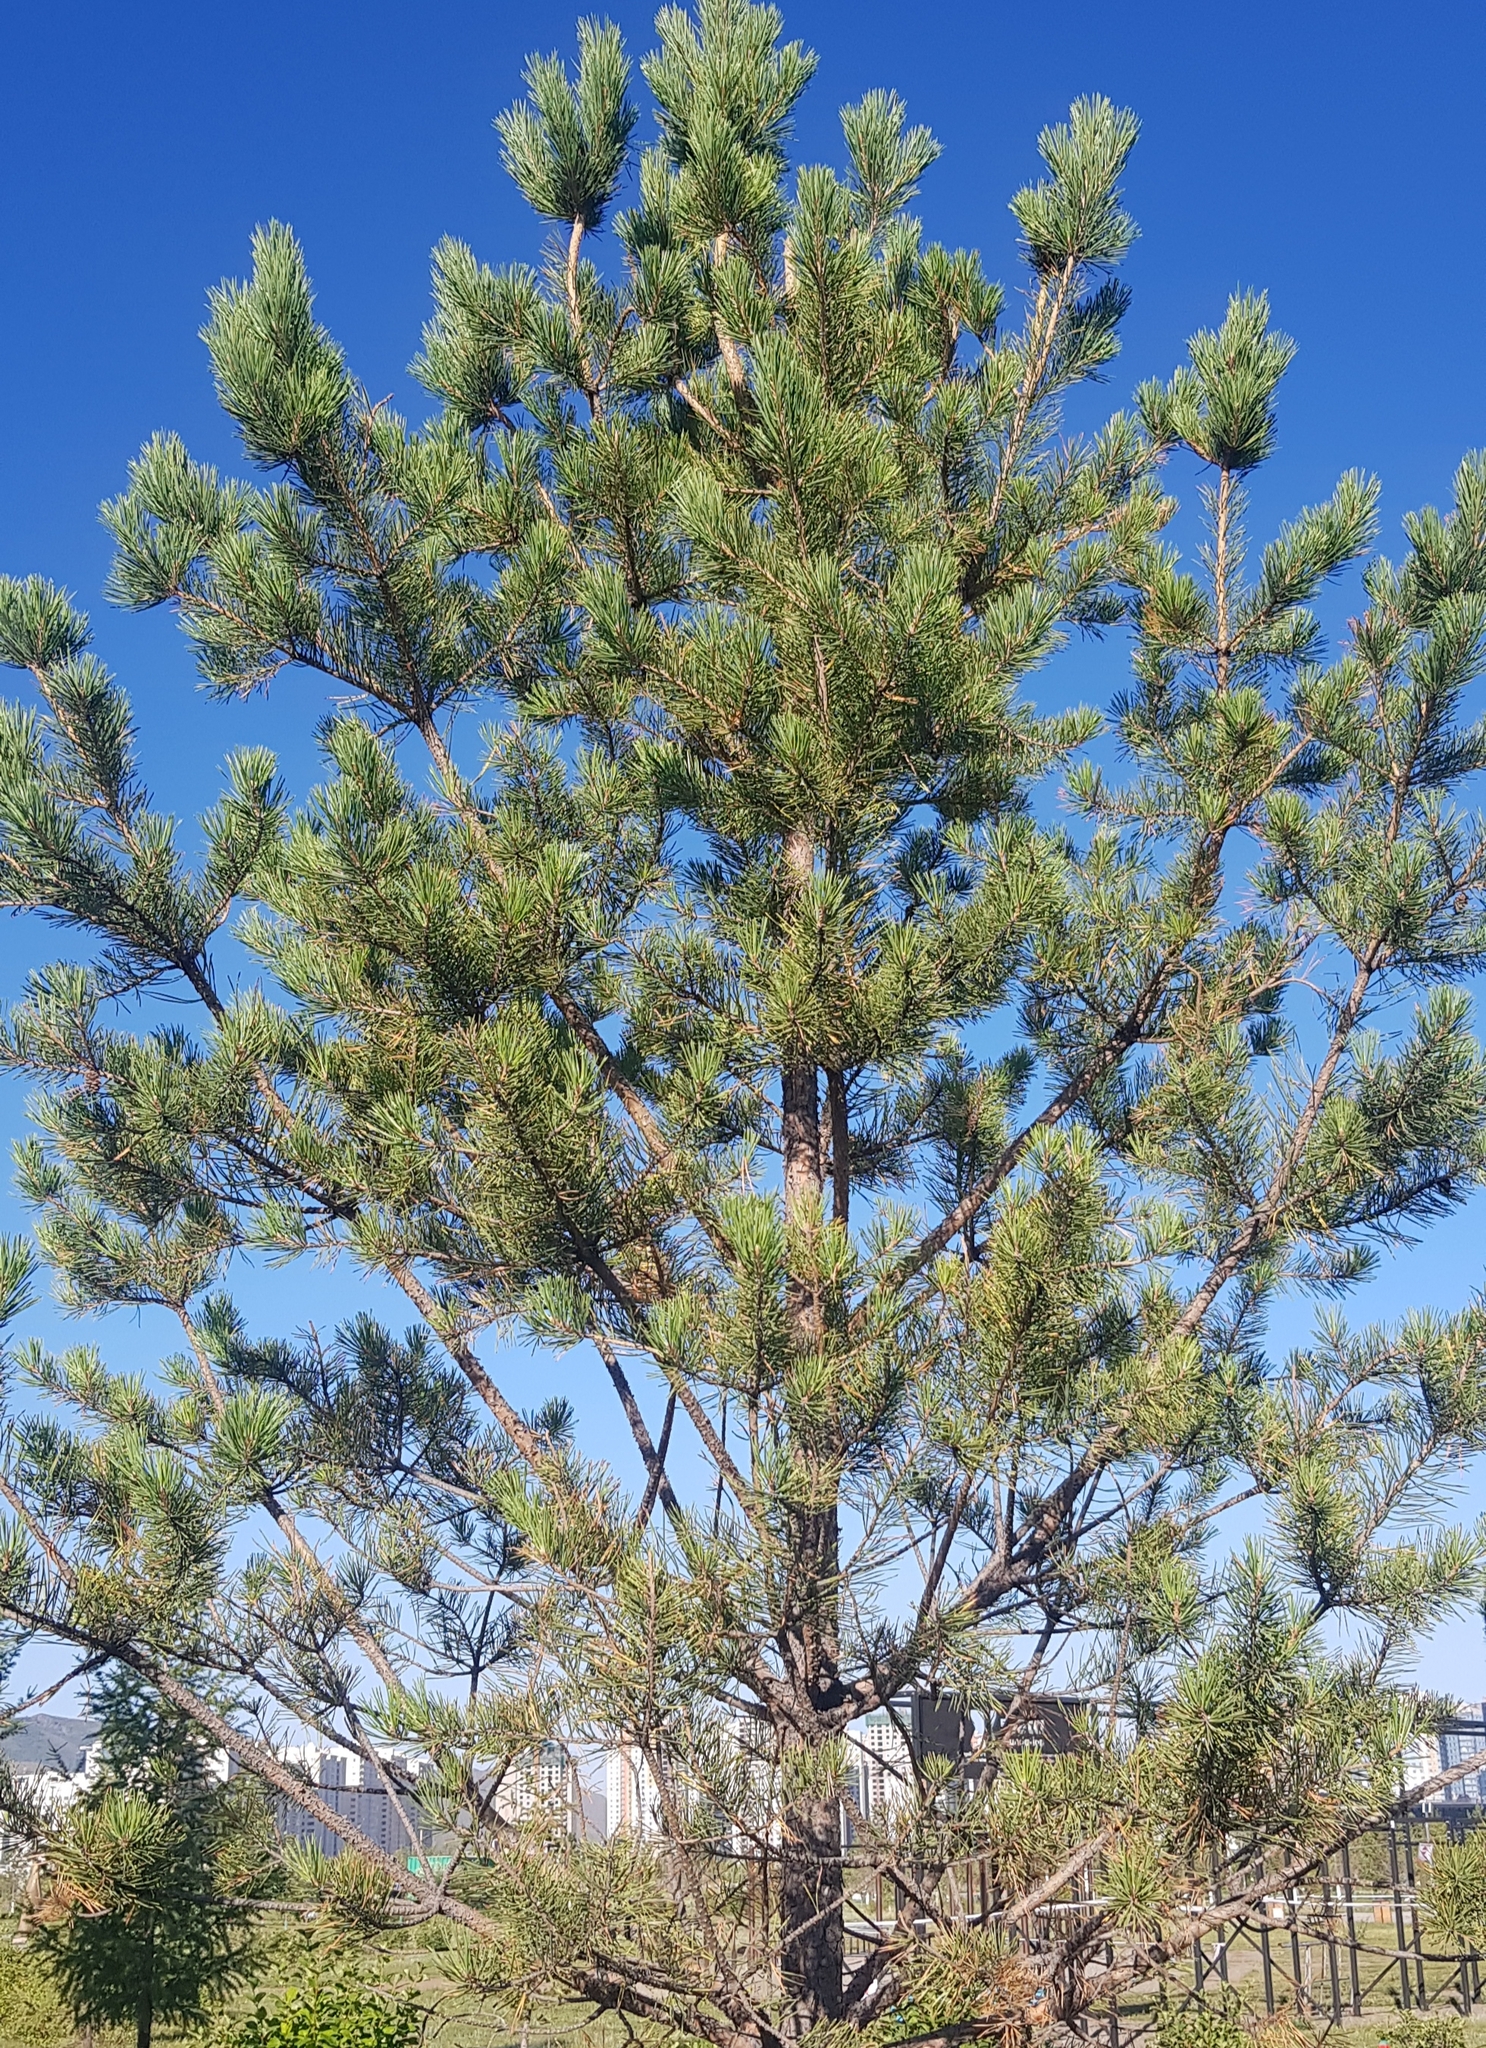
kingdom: Plantae
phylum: Tracheophyta
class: Pinopsida
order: Pinales
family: Pinaceae
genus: Pinus
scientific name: Pinus sylvestris
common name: Scots pine
